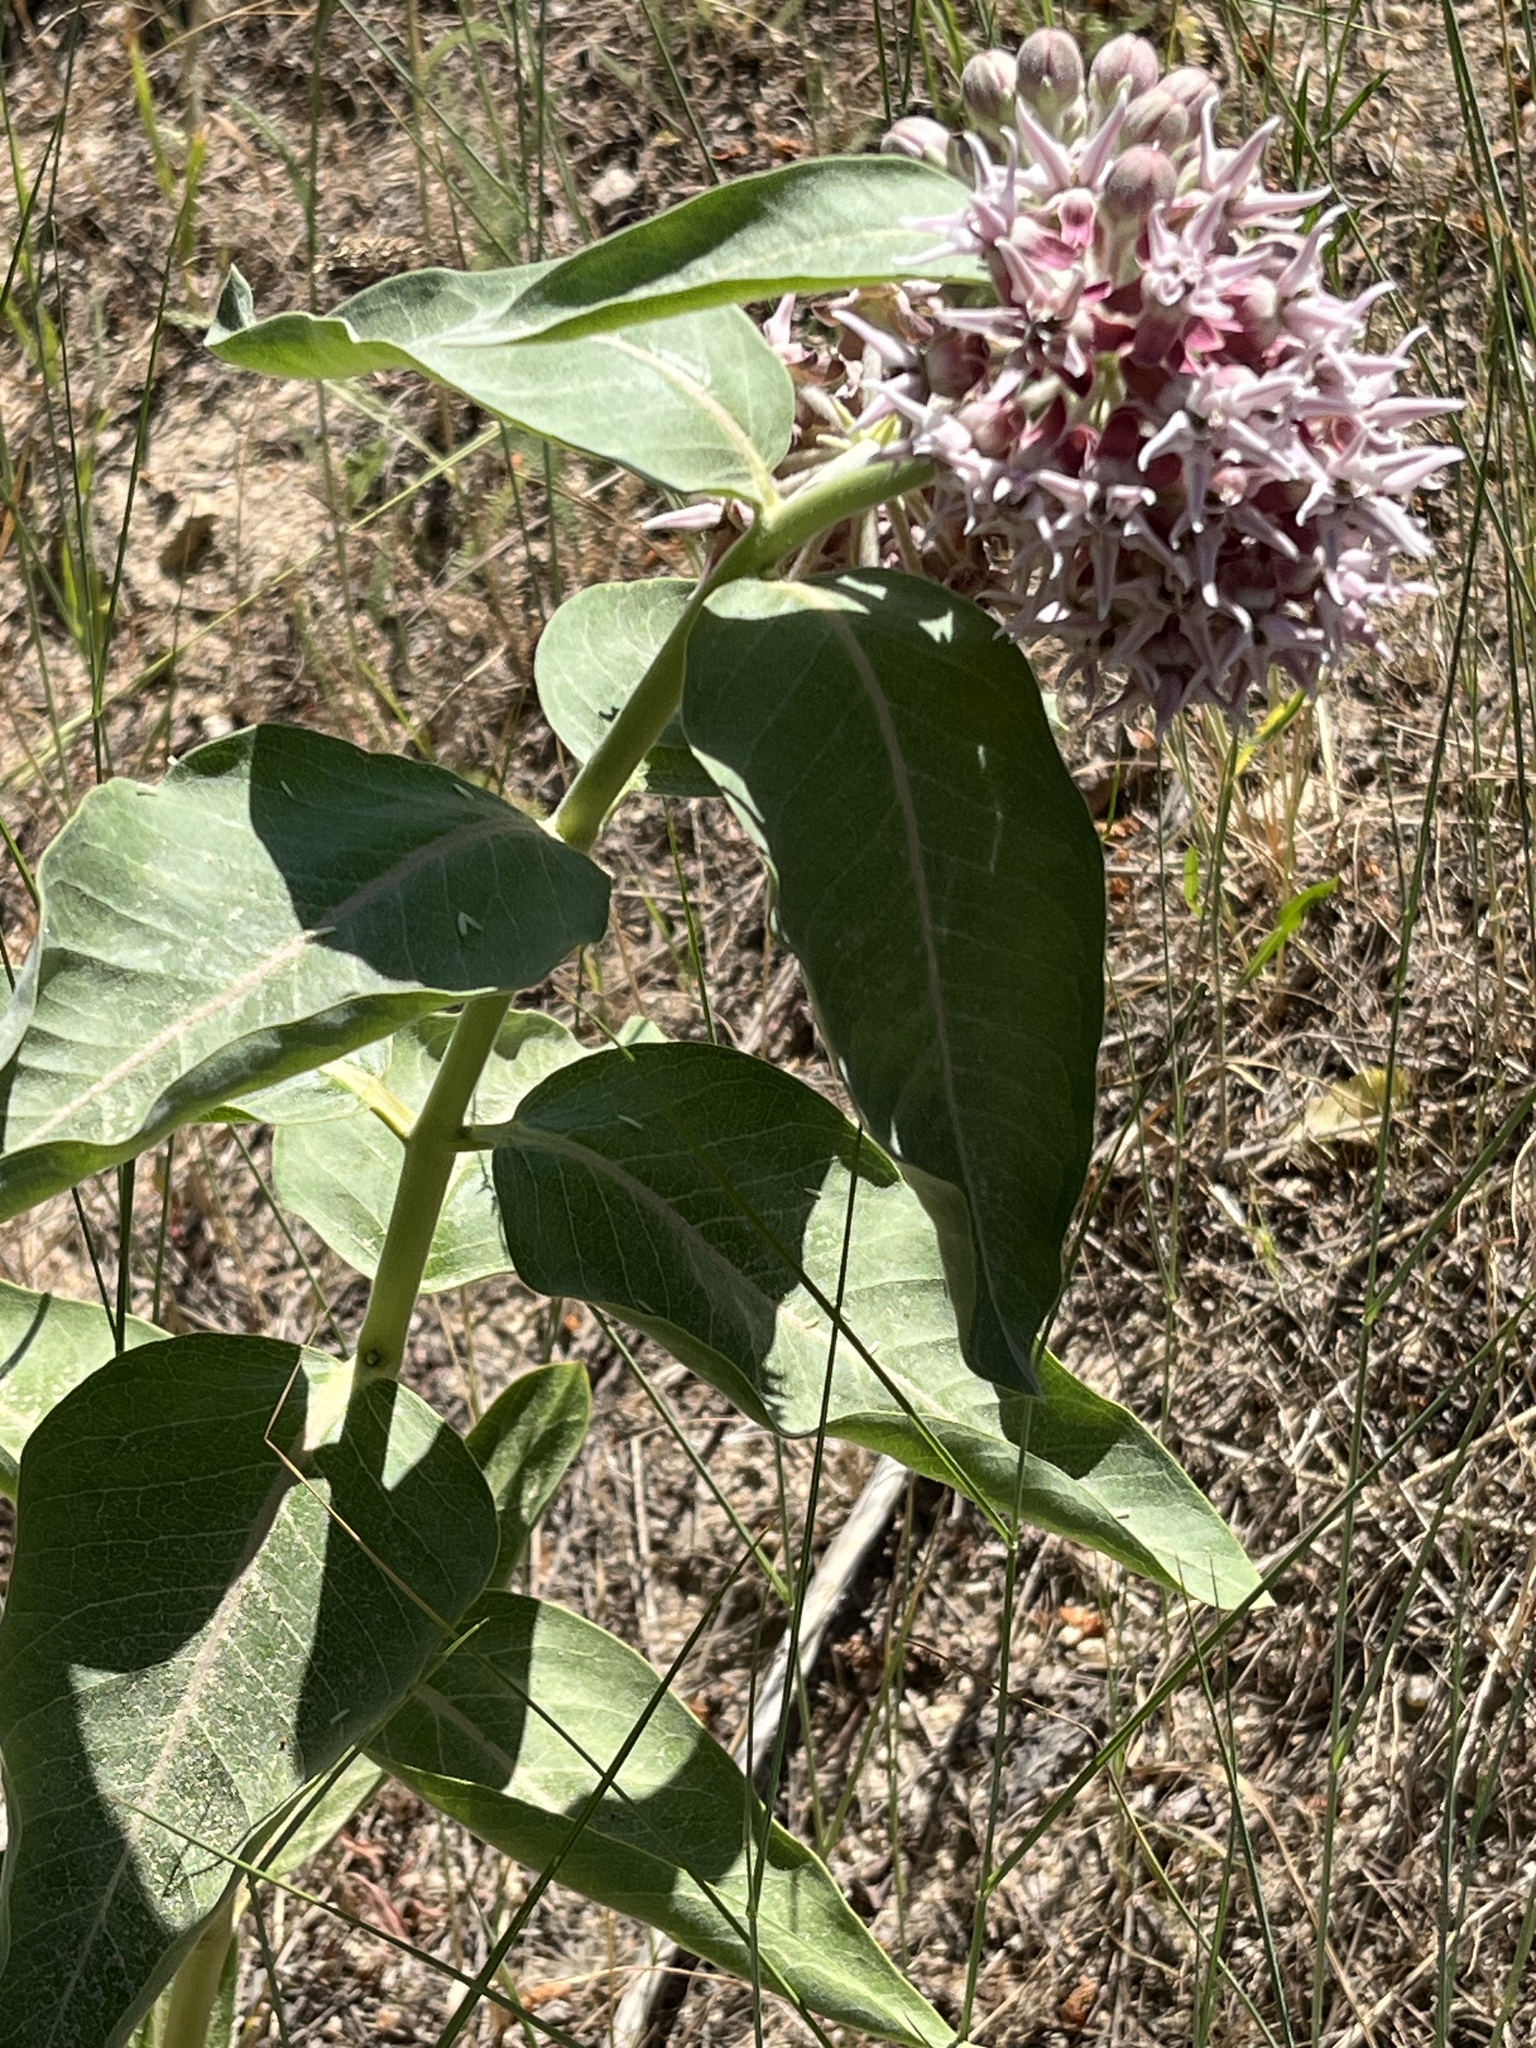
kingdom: Plantae
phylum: Tracheophyta
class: Magnoliopsida
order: Gentianales
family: Apocynaceae
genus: Asclepias
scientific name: Asclepias speciosa
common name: Showy milkweed
